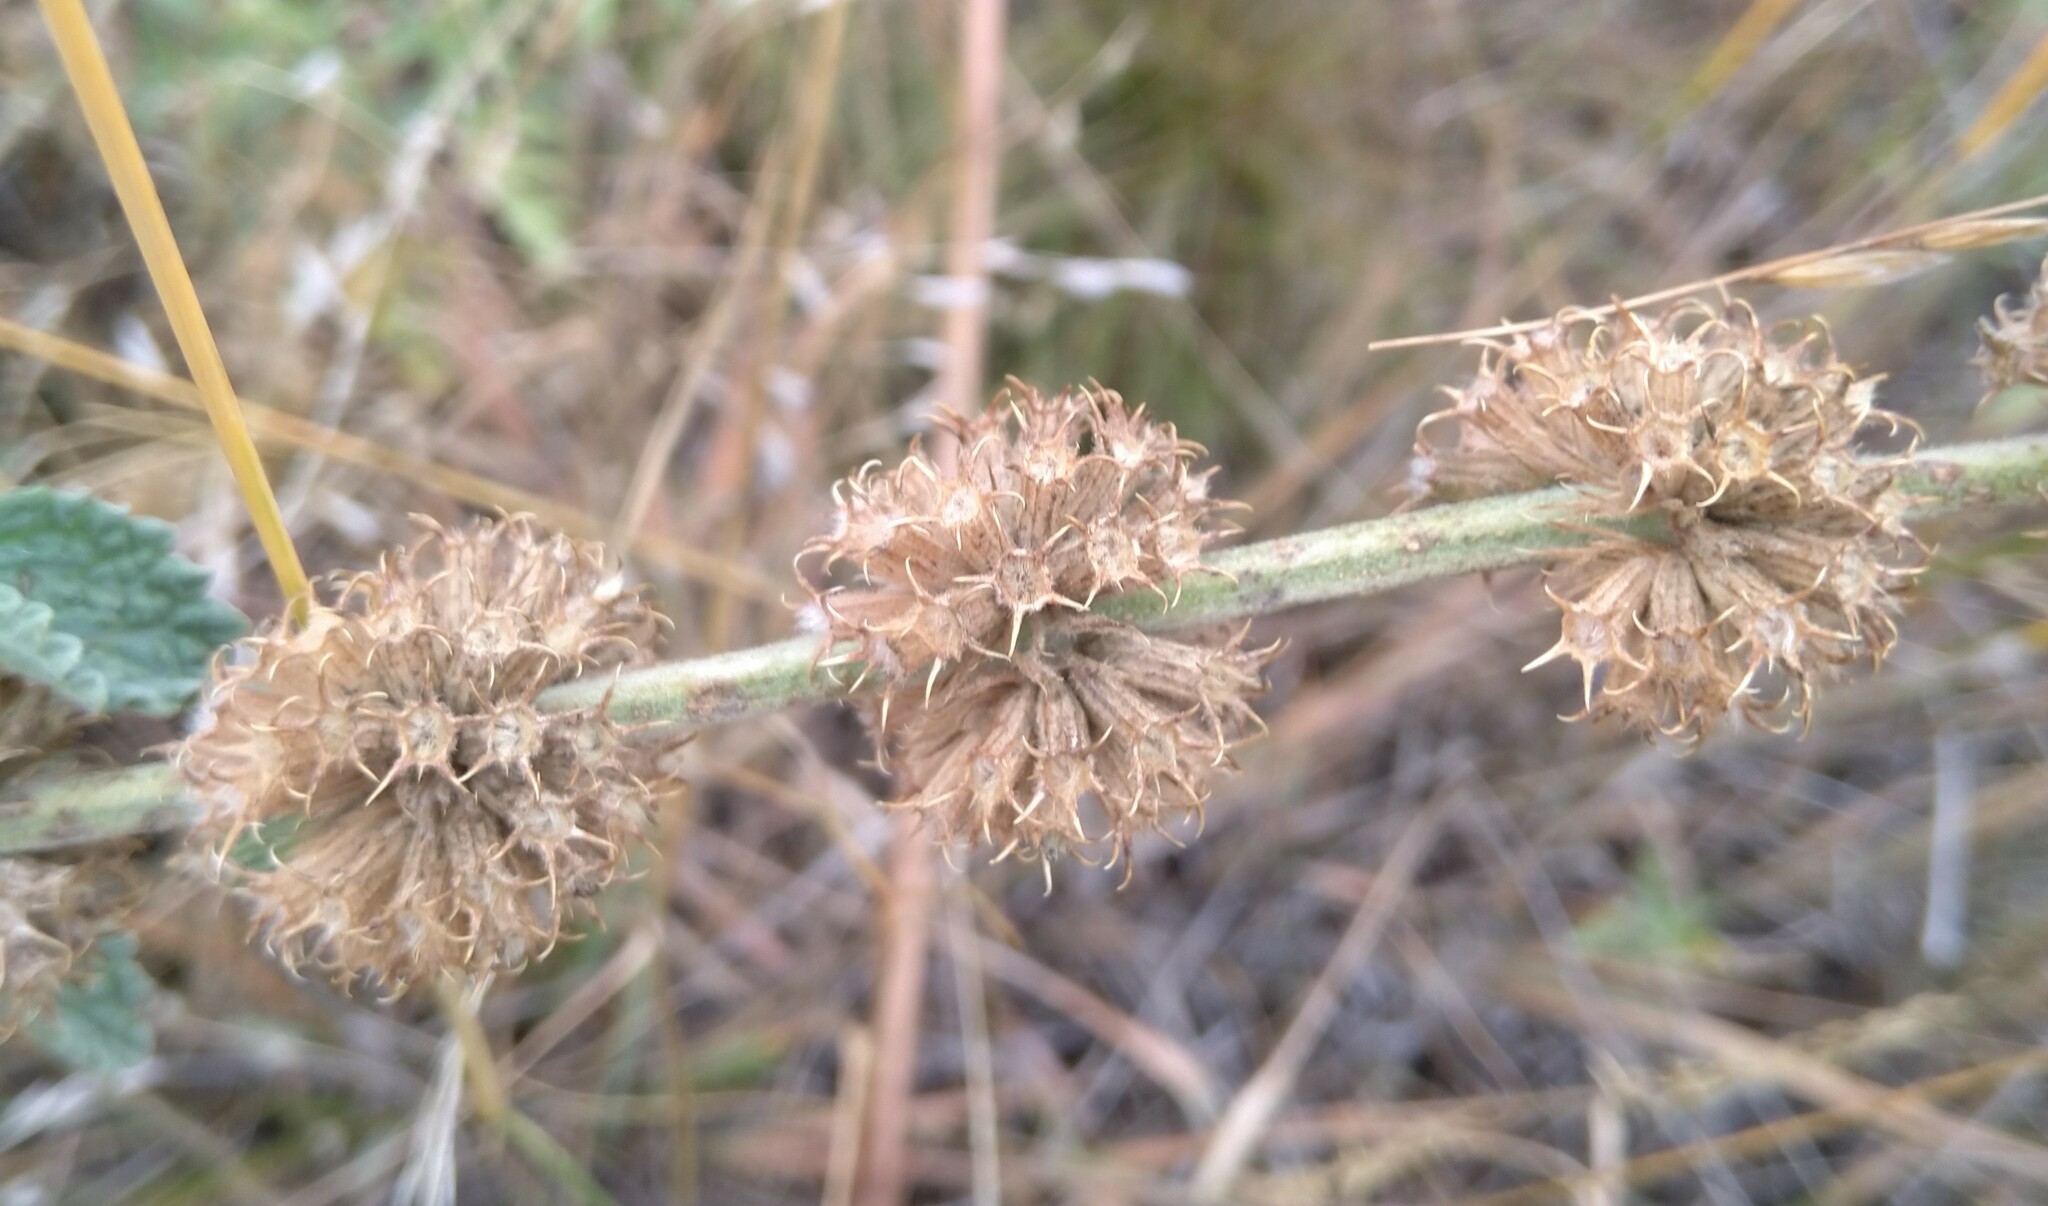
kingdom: Plantae
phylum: Tracheophyta
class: Magnoliopsida
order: Lamiales
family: Lamiaceae
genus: Marrubium
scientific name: Marrubium vulgare
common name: Horehound
